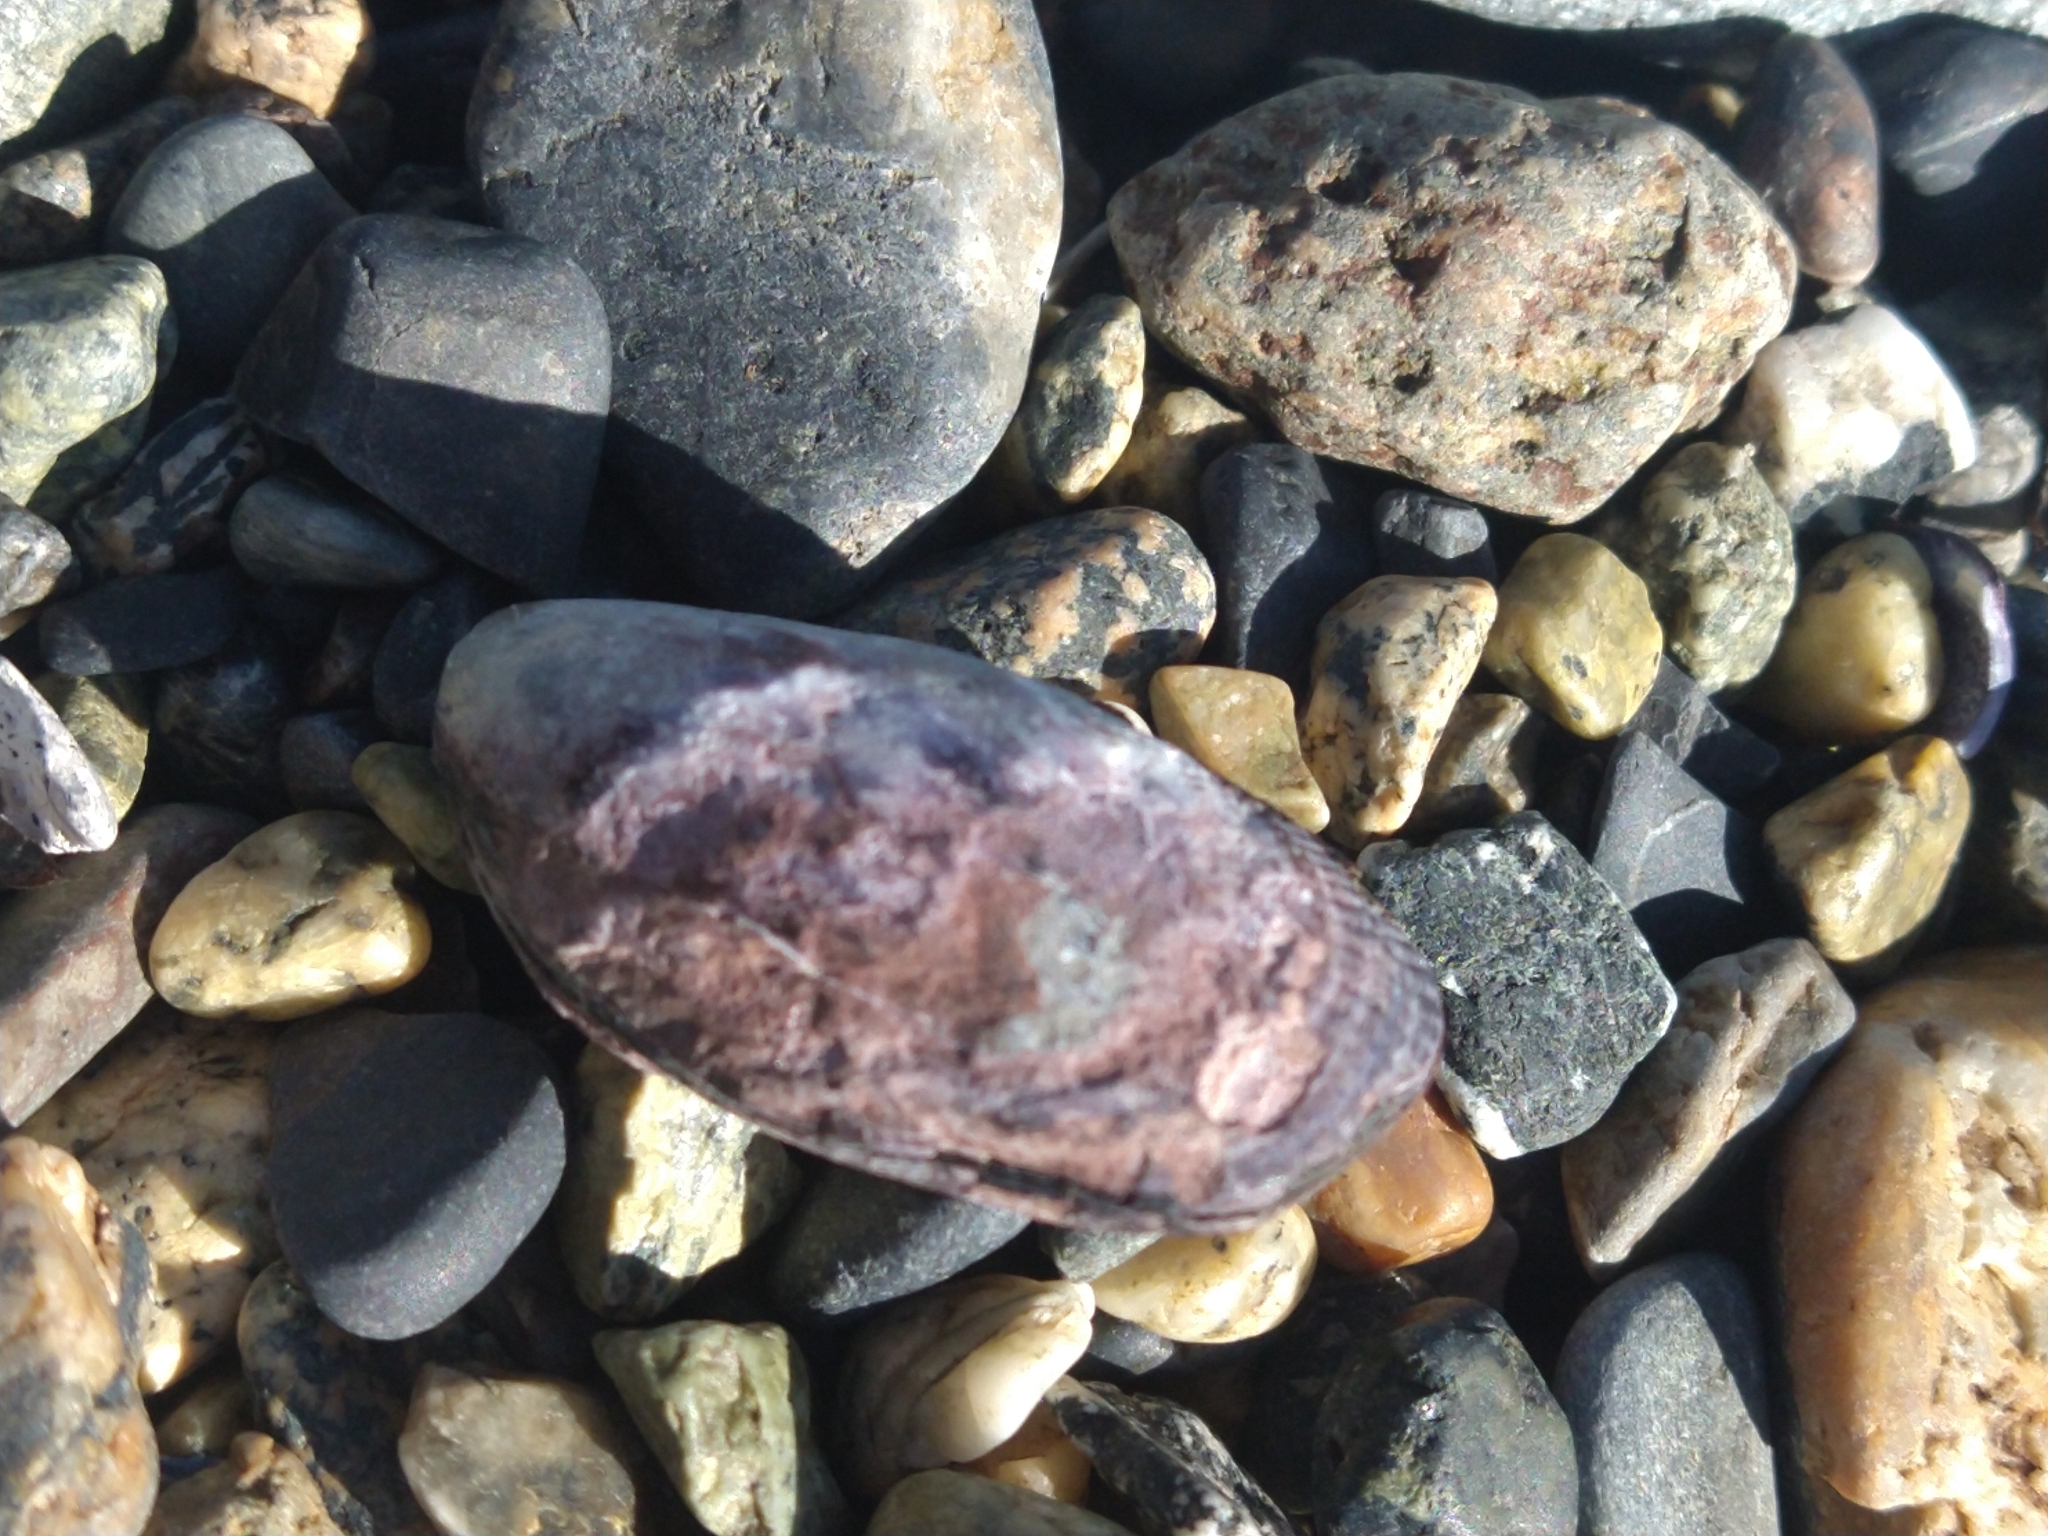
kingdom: Animalia
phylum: Mollusca
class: Bivalvia
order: Mytilida
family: Mytilidae
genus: Perumytilus
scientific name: Perumytilus purpuratus
